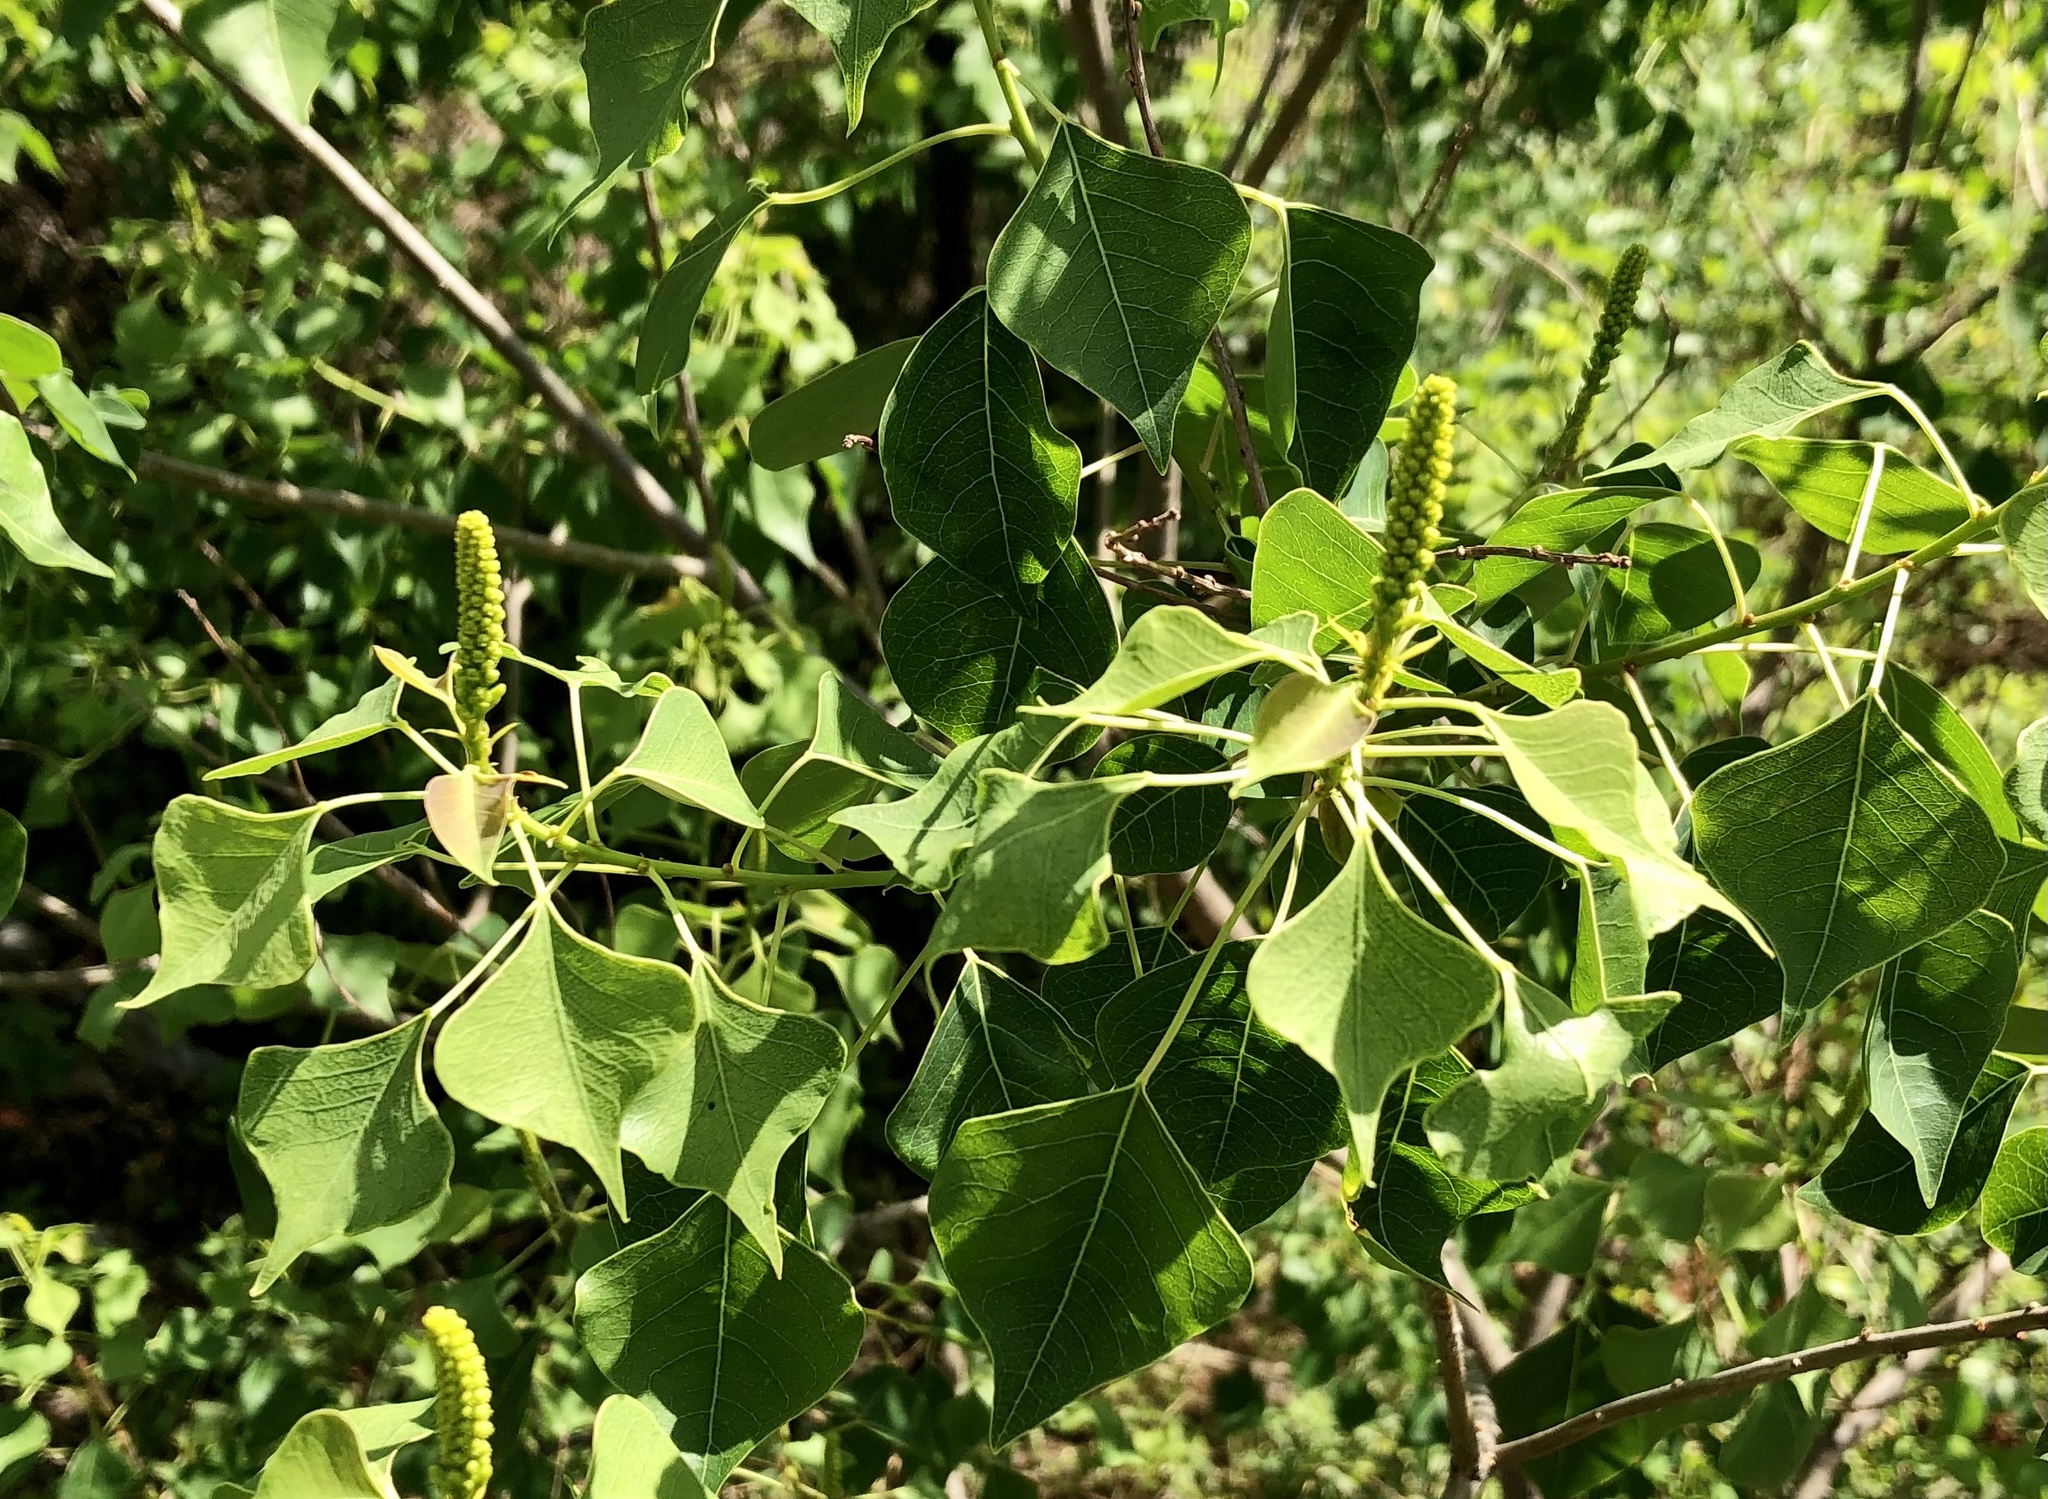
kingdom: Plantae
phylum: Tracheophyta
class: Magnoliopsida
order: Malpighiales
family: Euphorbiaceae
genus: Triadica
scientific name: Triadica sebifera
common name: Chinese tallow
